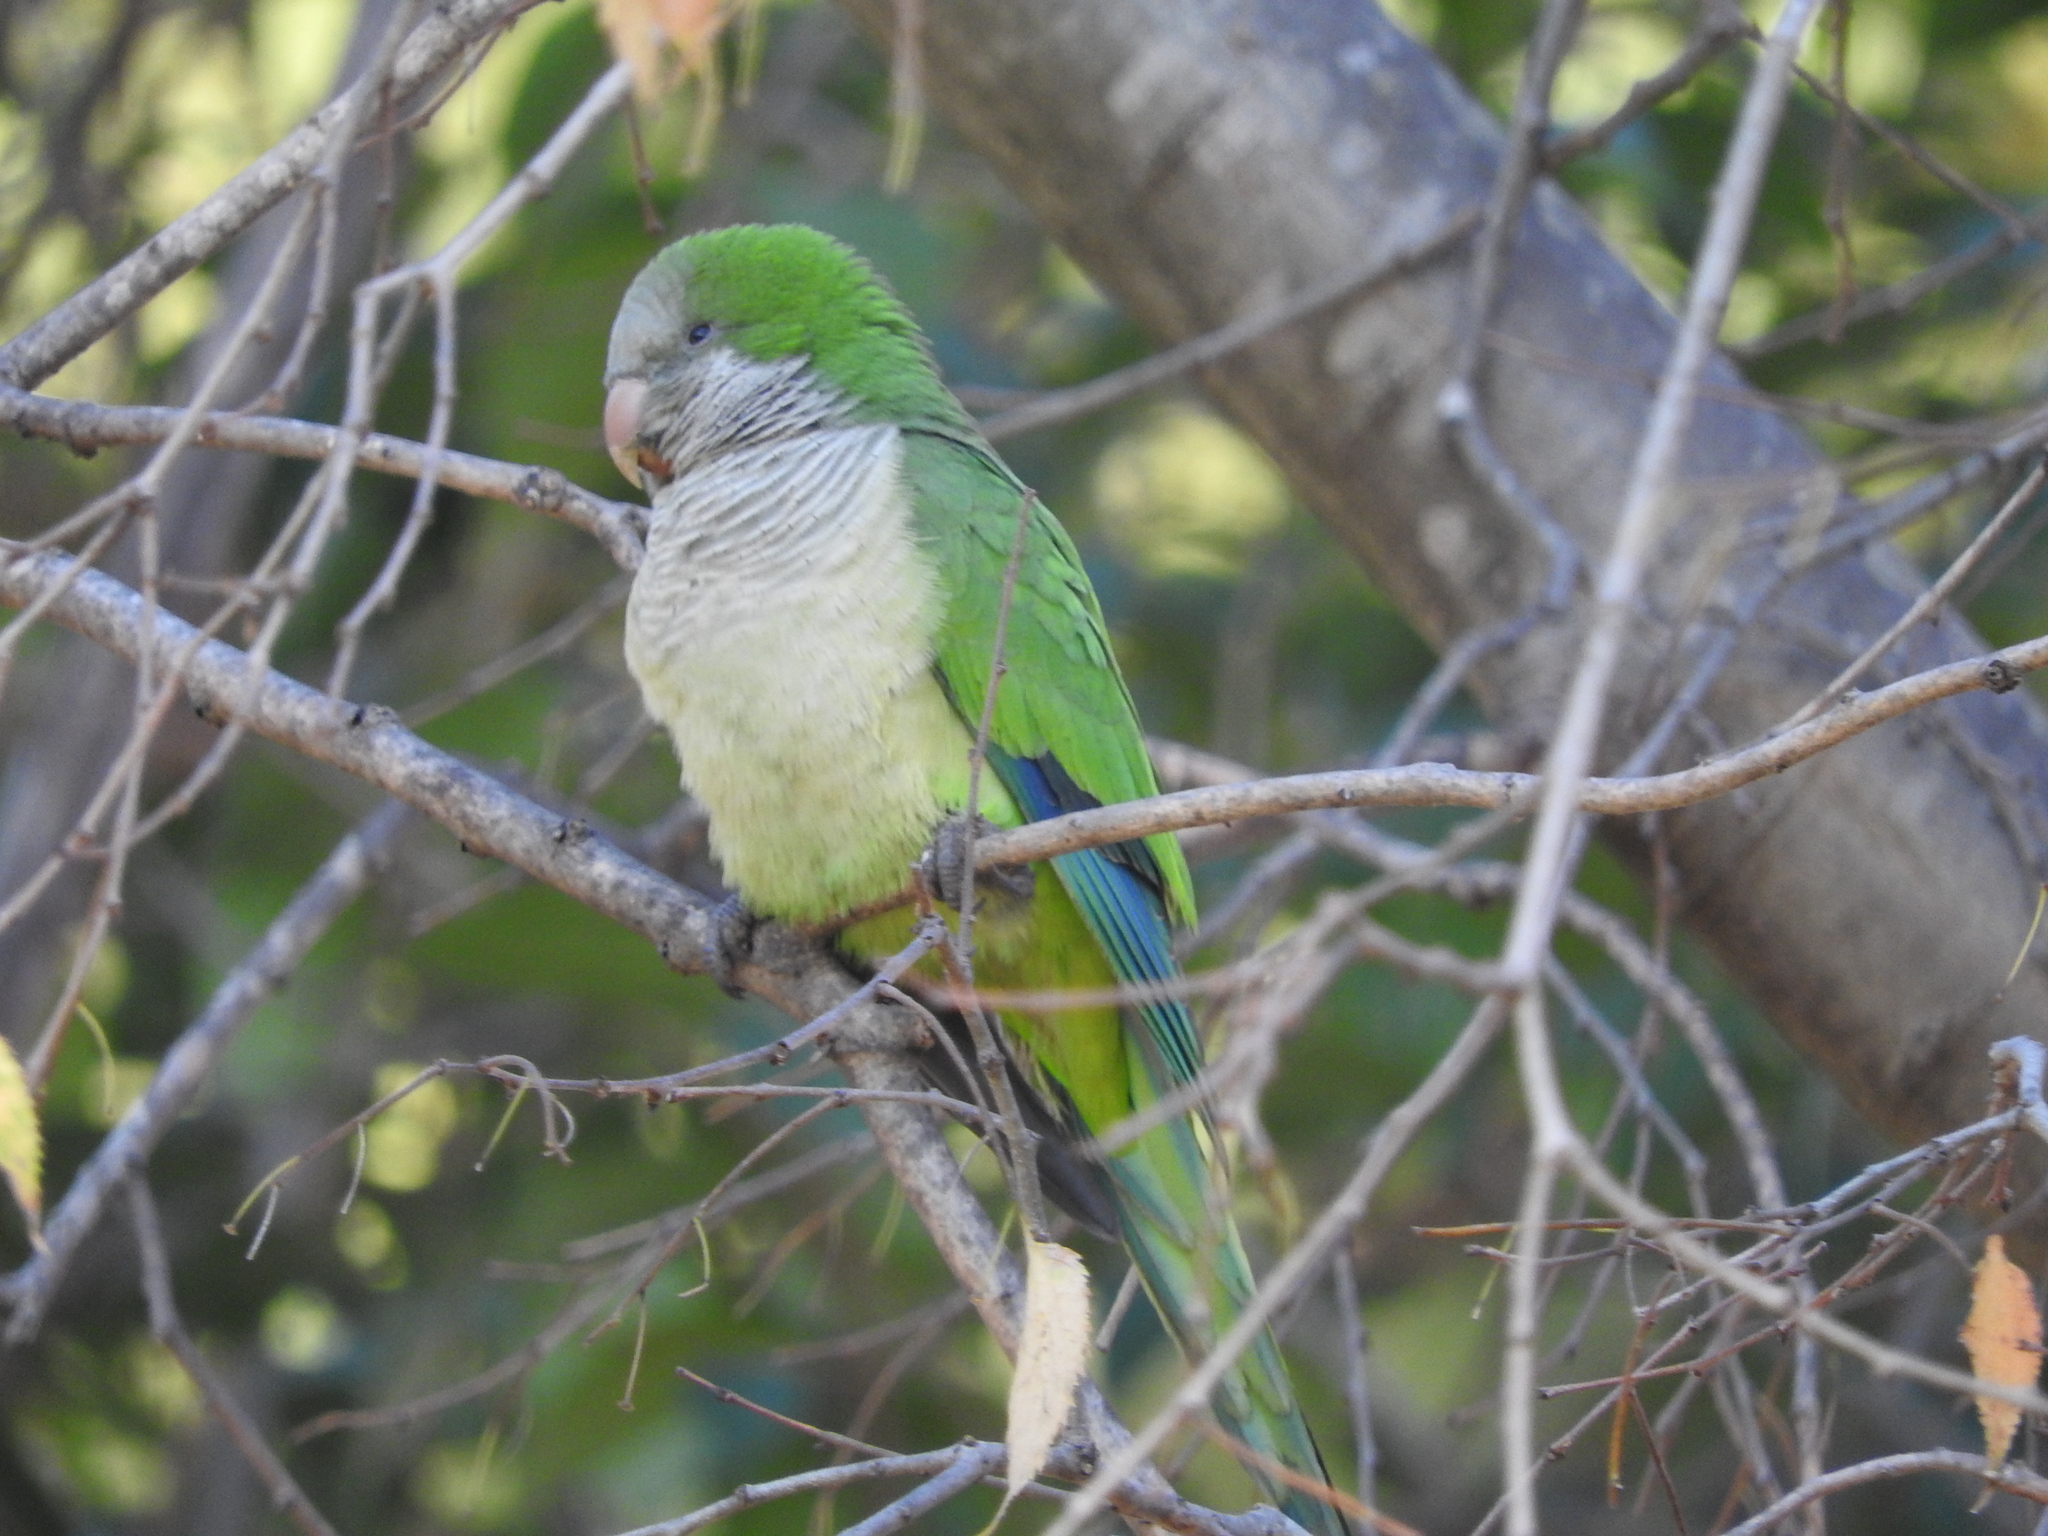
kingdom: Animalia
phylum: Chordata
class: Aves
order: Psittaciformes
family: Psittacidae
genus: Myiopsitta
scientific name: Myiopsitta monachus
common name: Monk parakeet
